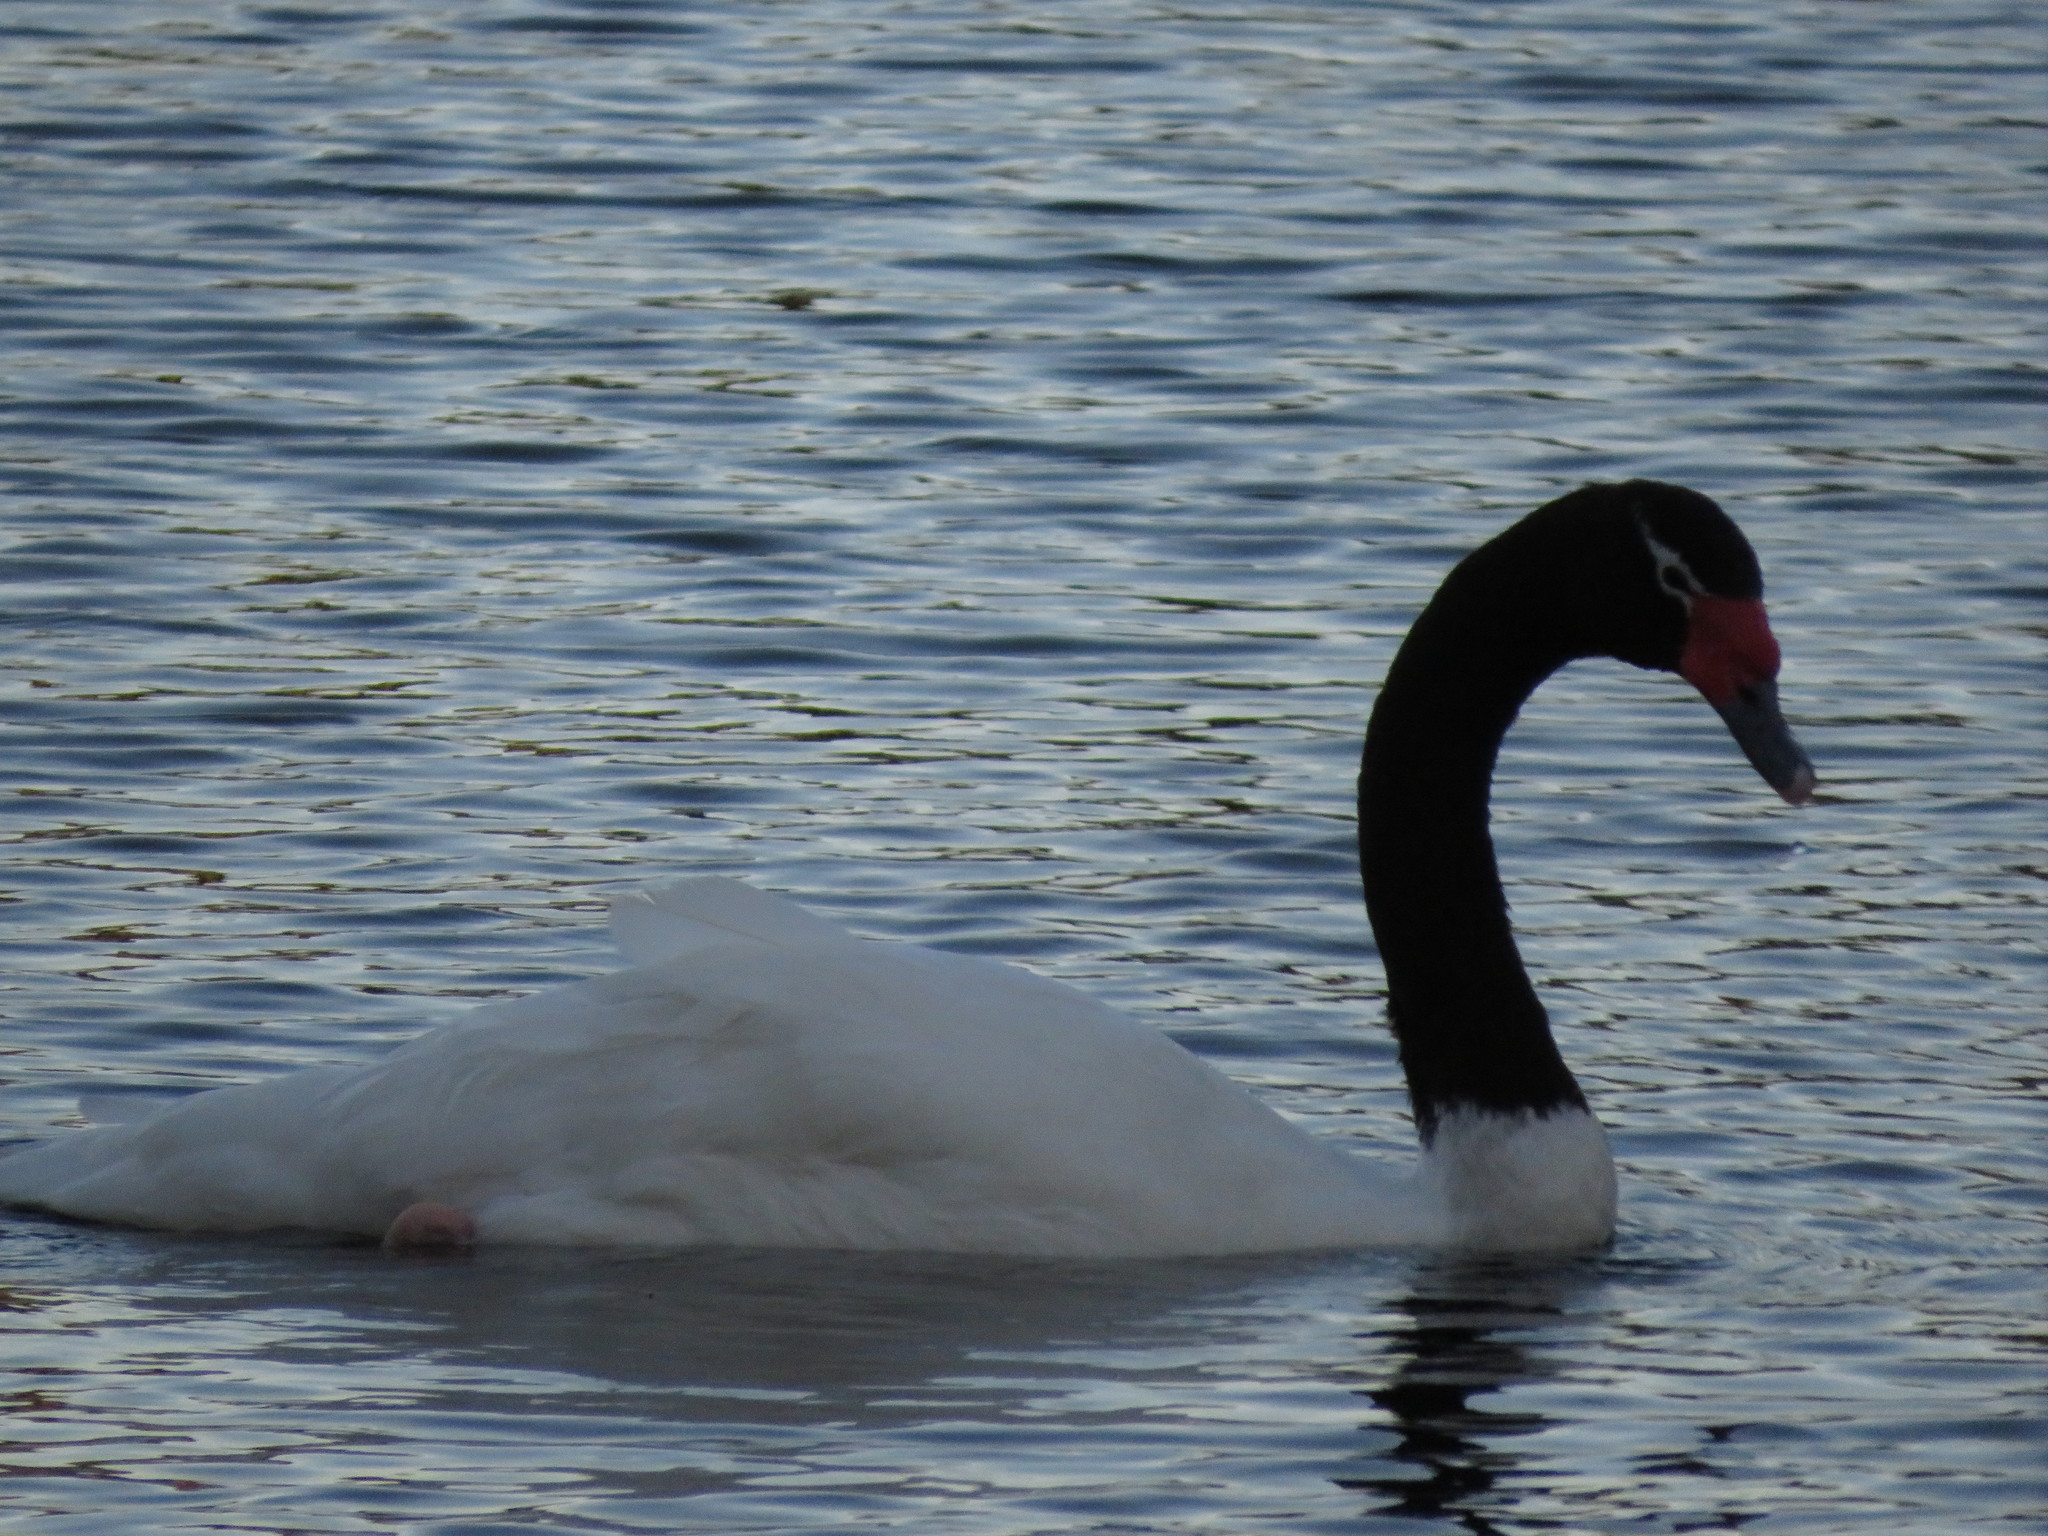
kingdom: Animalia
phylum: Chordata
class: Aves
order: Anseriformes
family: Anatidae
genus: Cygnus
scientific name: Cygnus melancoryphus
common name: Black-necked swan
